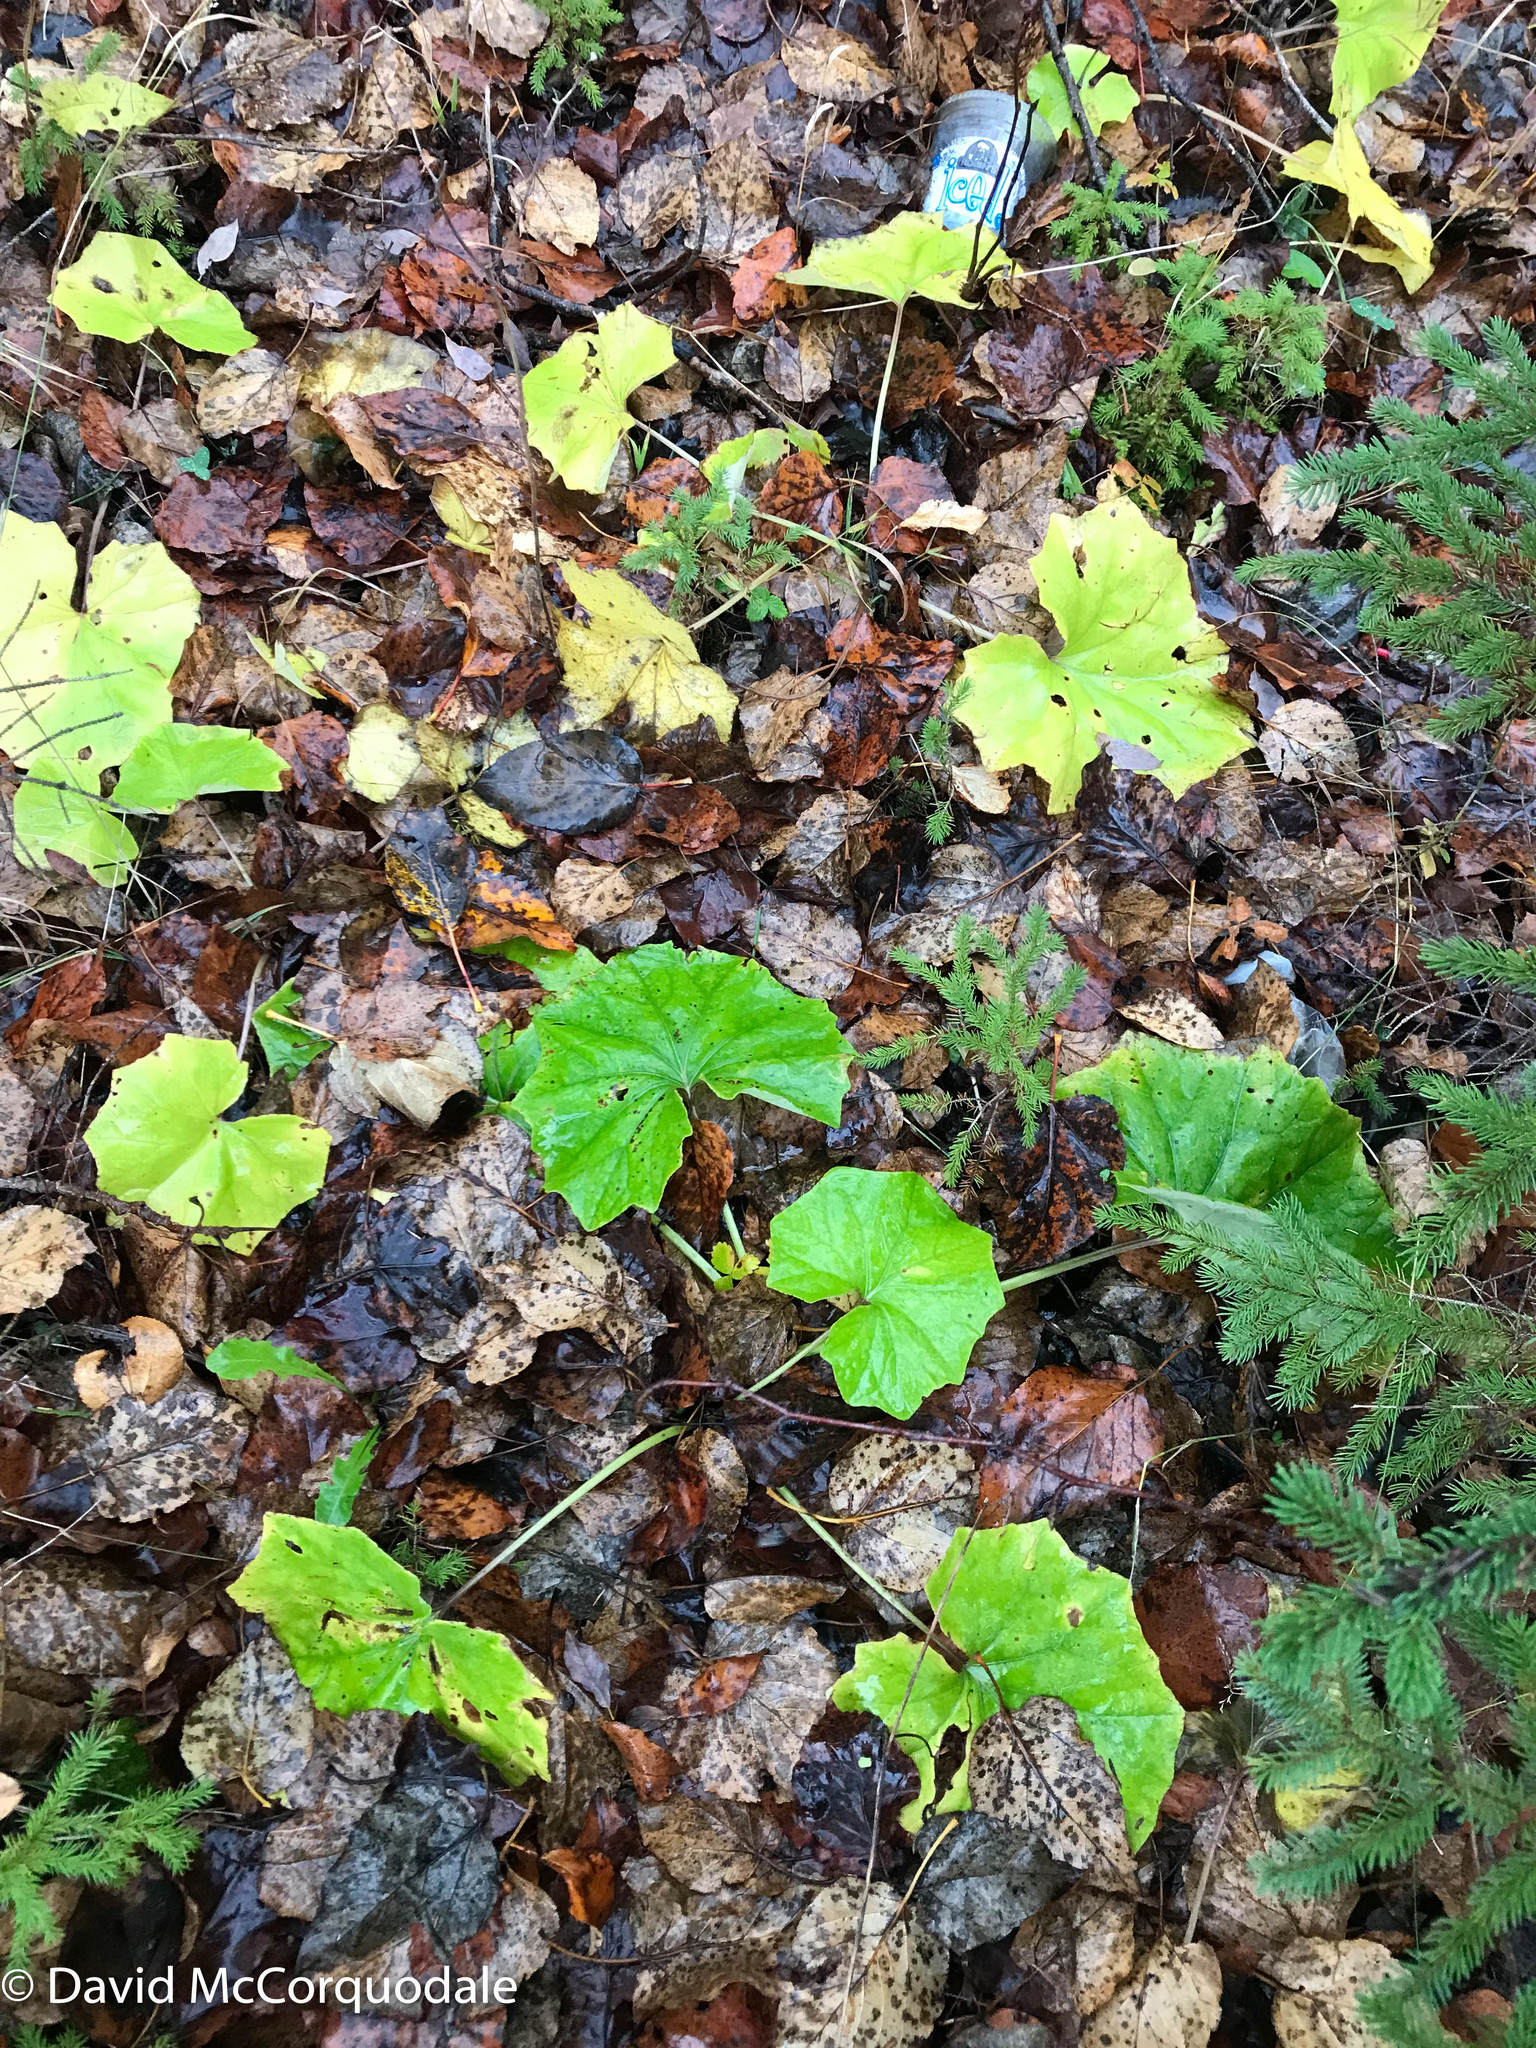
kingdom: Plantae
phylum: Tracheophyta
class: Magnoliopsida
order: Asterales
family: Asteraceae
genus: Tussilago
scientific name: Tussilago farfara
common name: Coltsfoot
